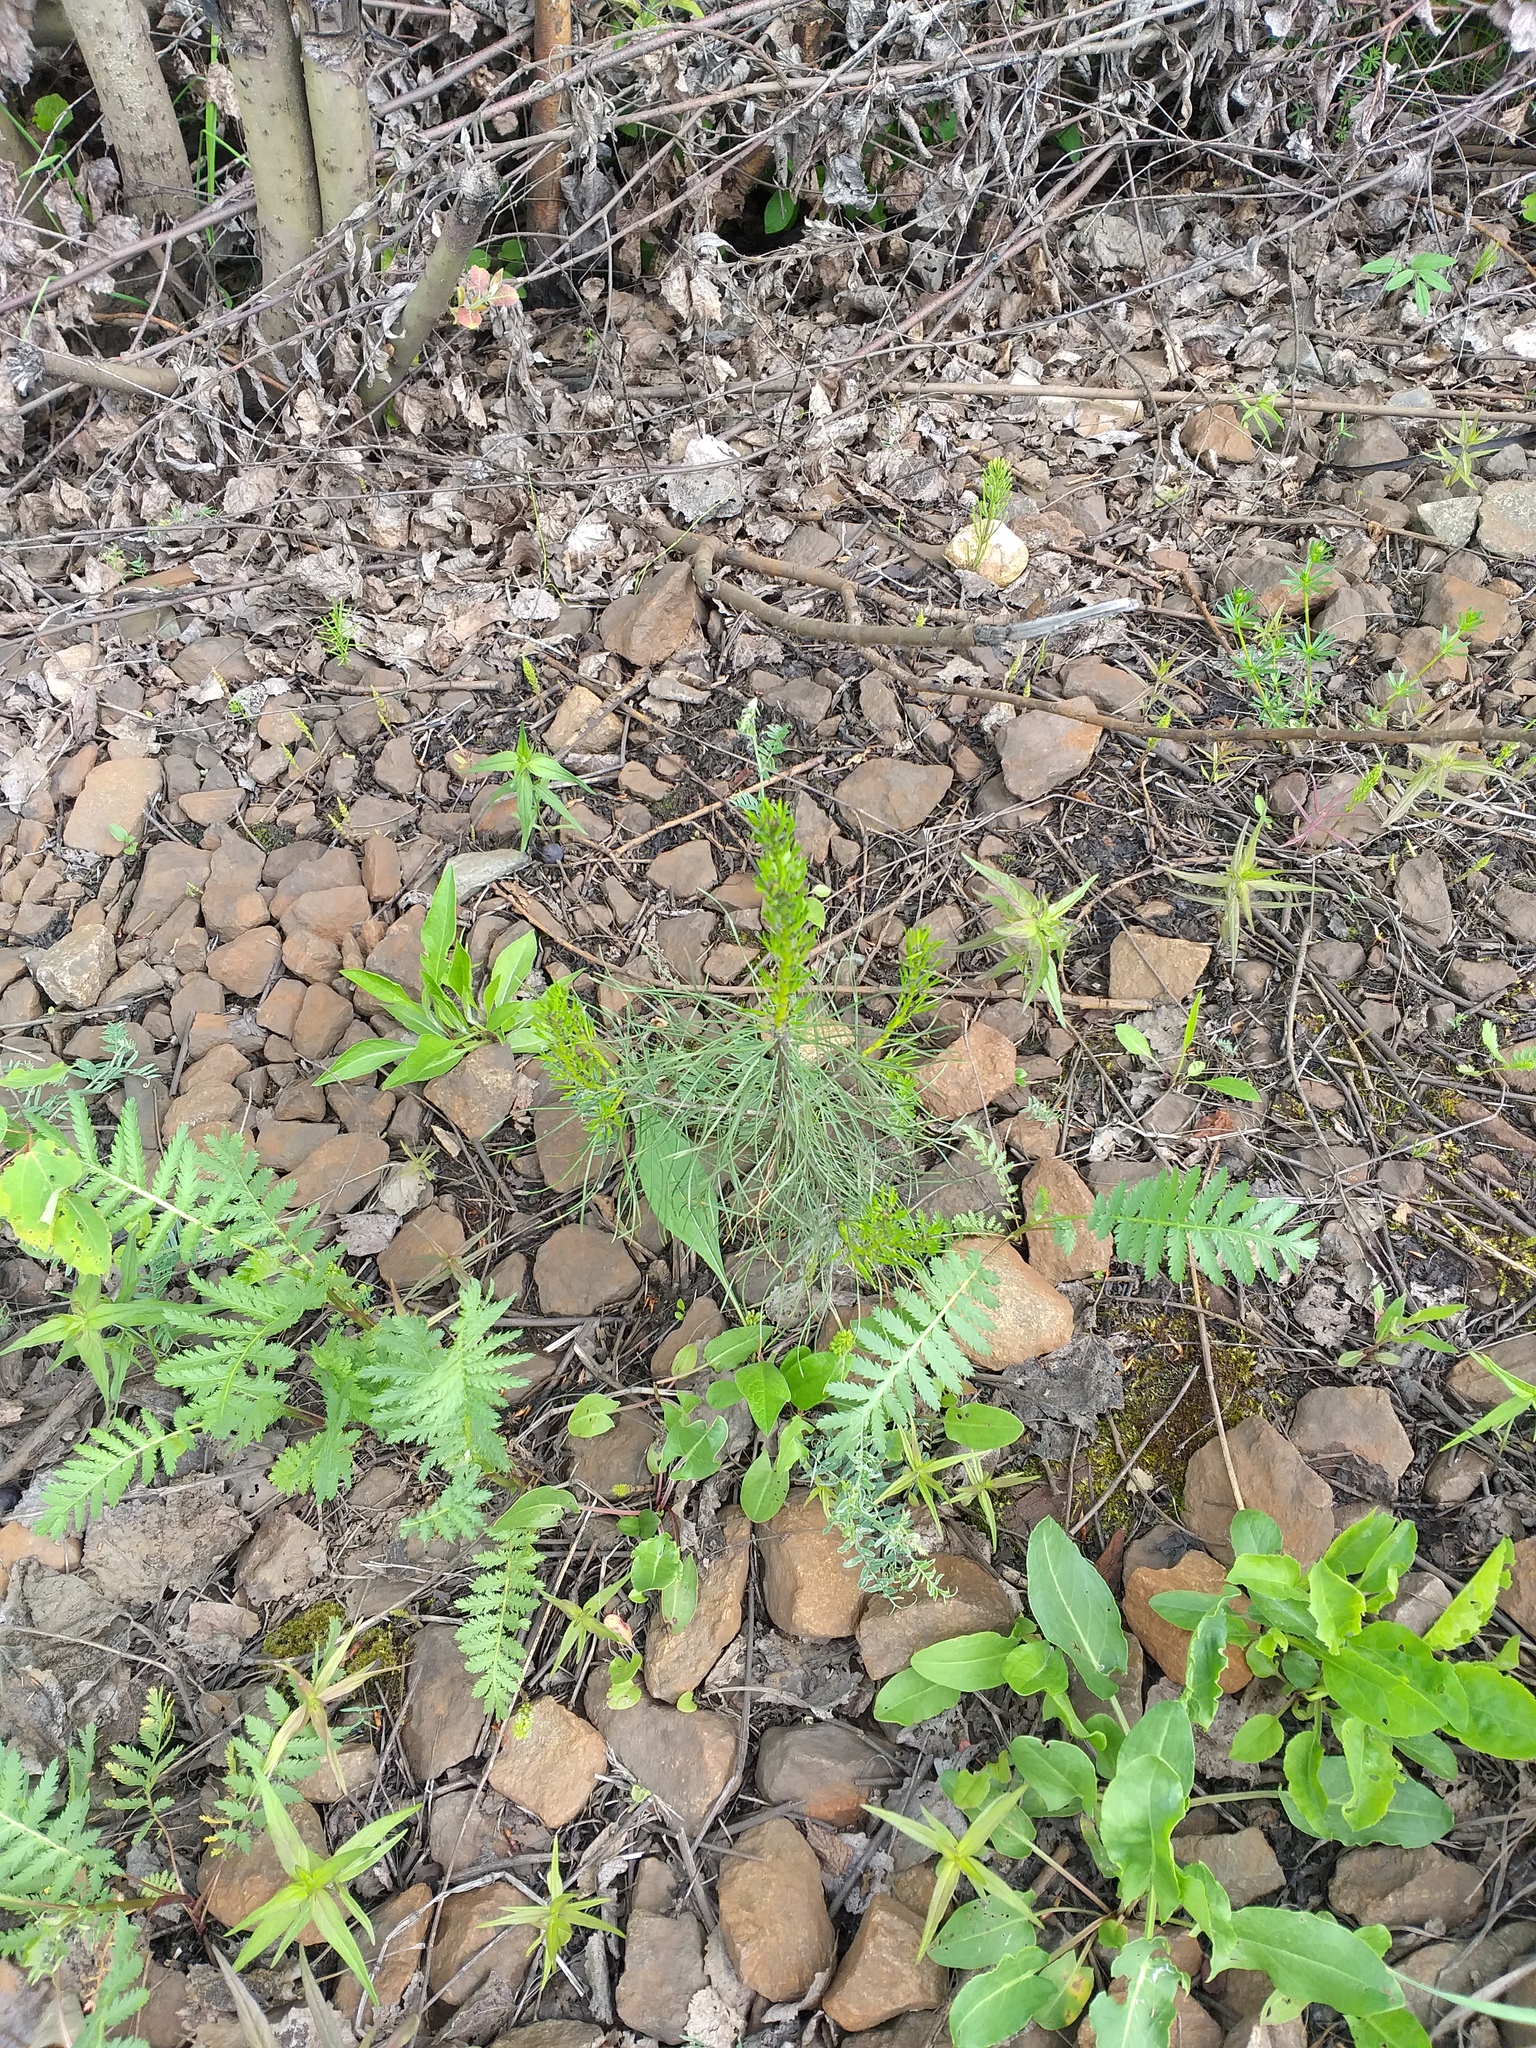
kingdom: Plantae
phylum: Tracheophyta
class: Pinopsida
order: Pinales
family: Pinaceae
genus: Pinus
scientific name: Pinus sylvestris
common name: Scots pine
